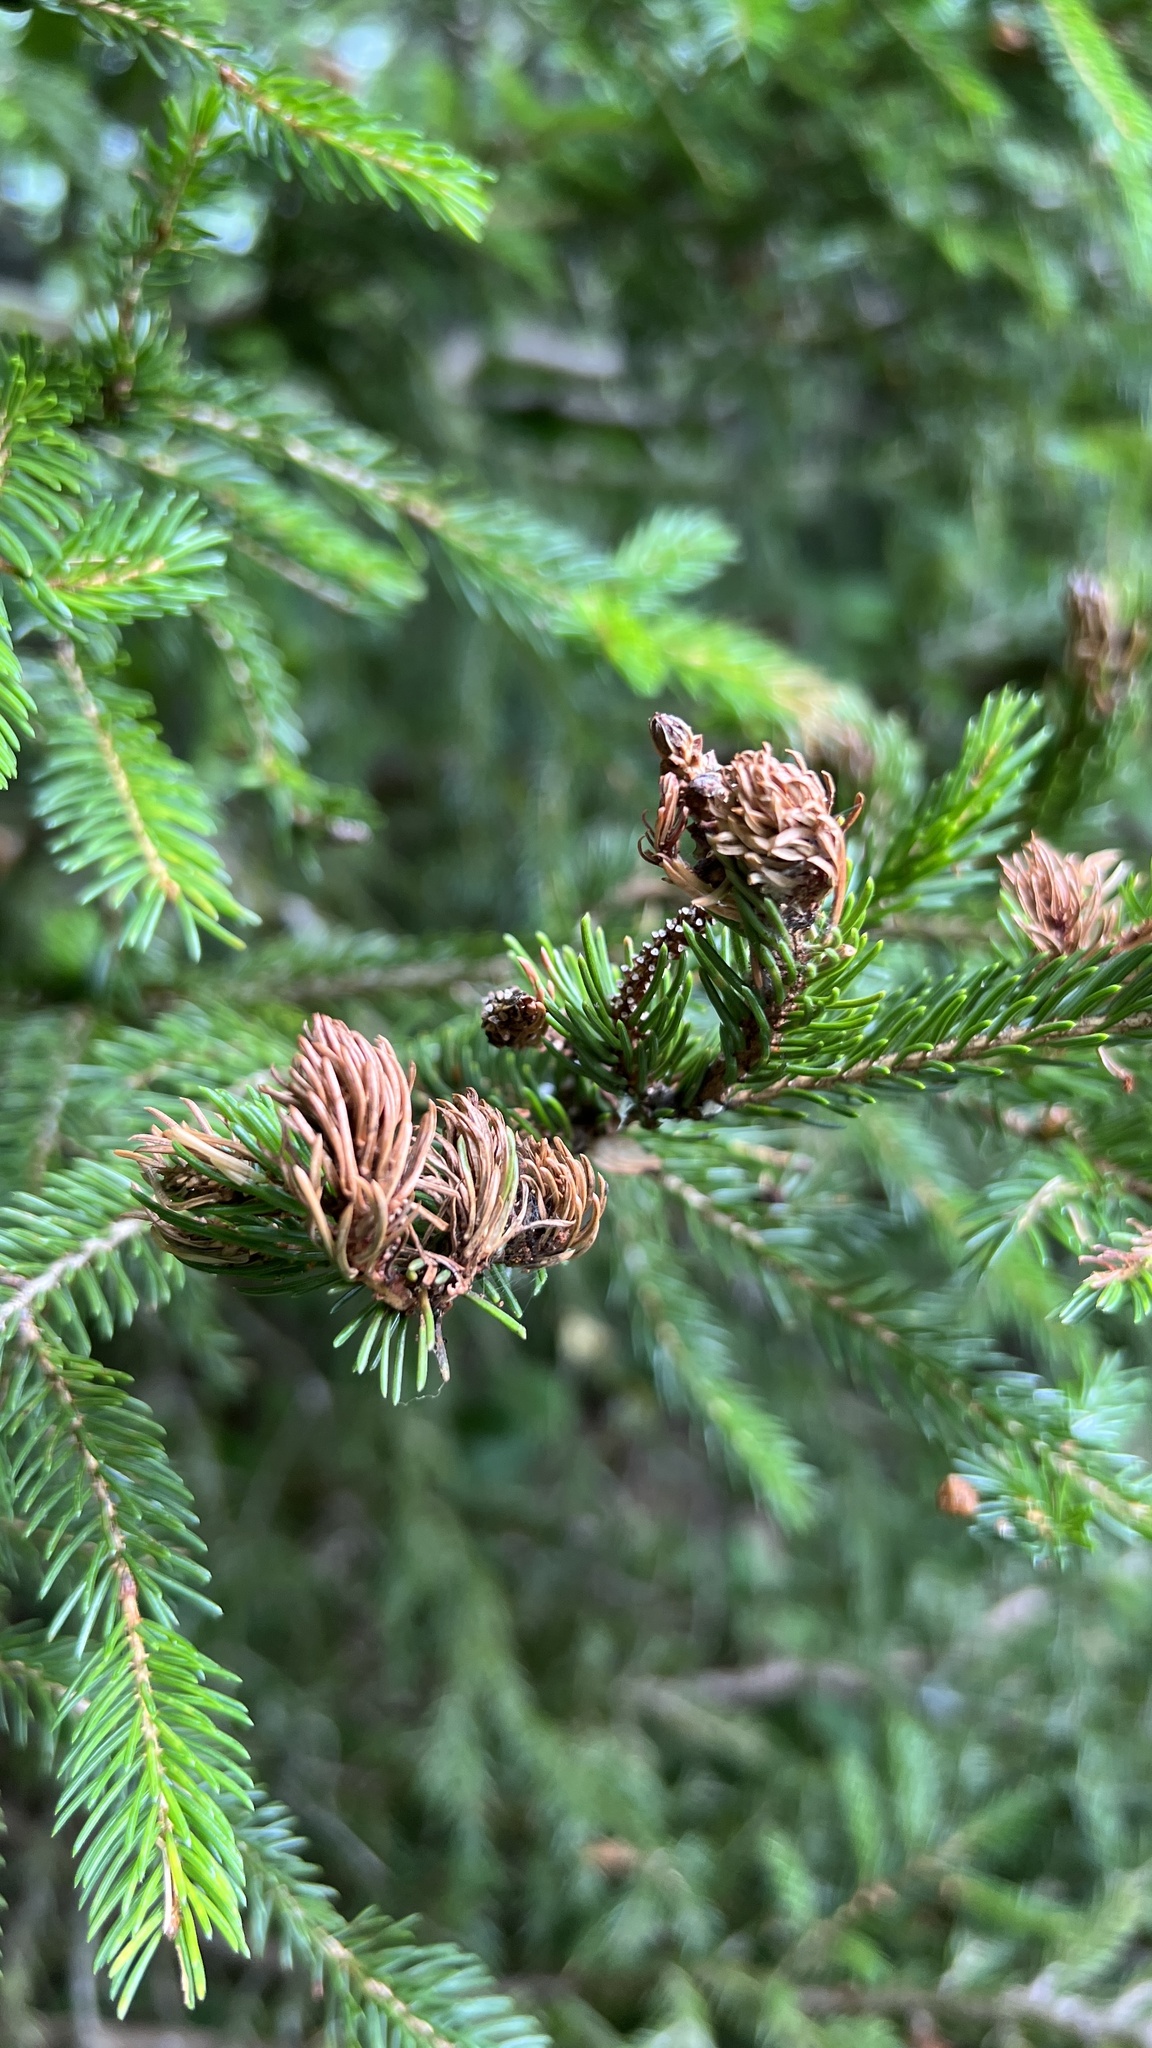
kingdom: Animalia
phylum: Arthropoda
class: Insecta
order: Hemiptera
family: Adelgidae
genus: Adelges
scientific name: Adelges abietis
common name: Eastern spruce gall adelgid
